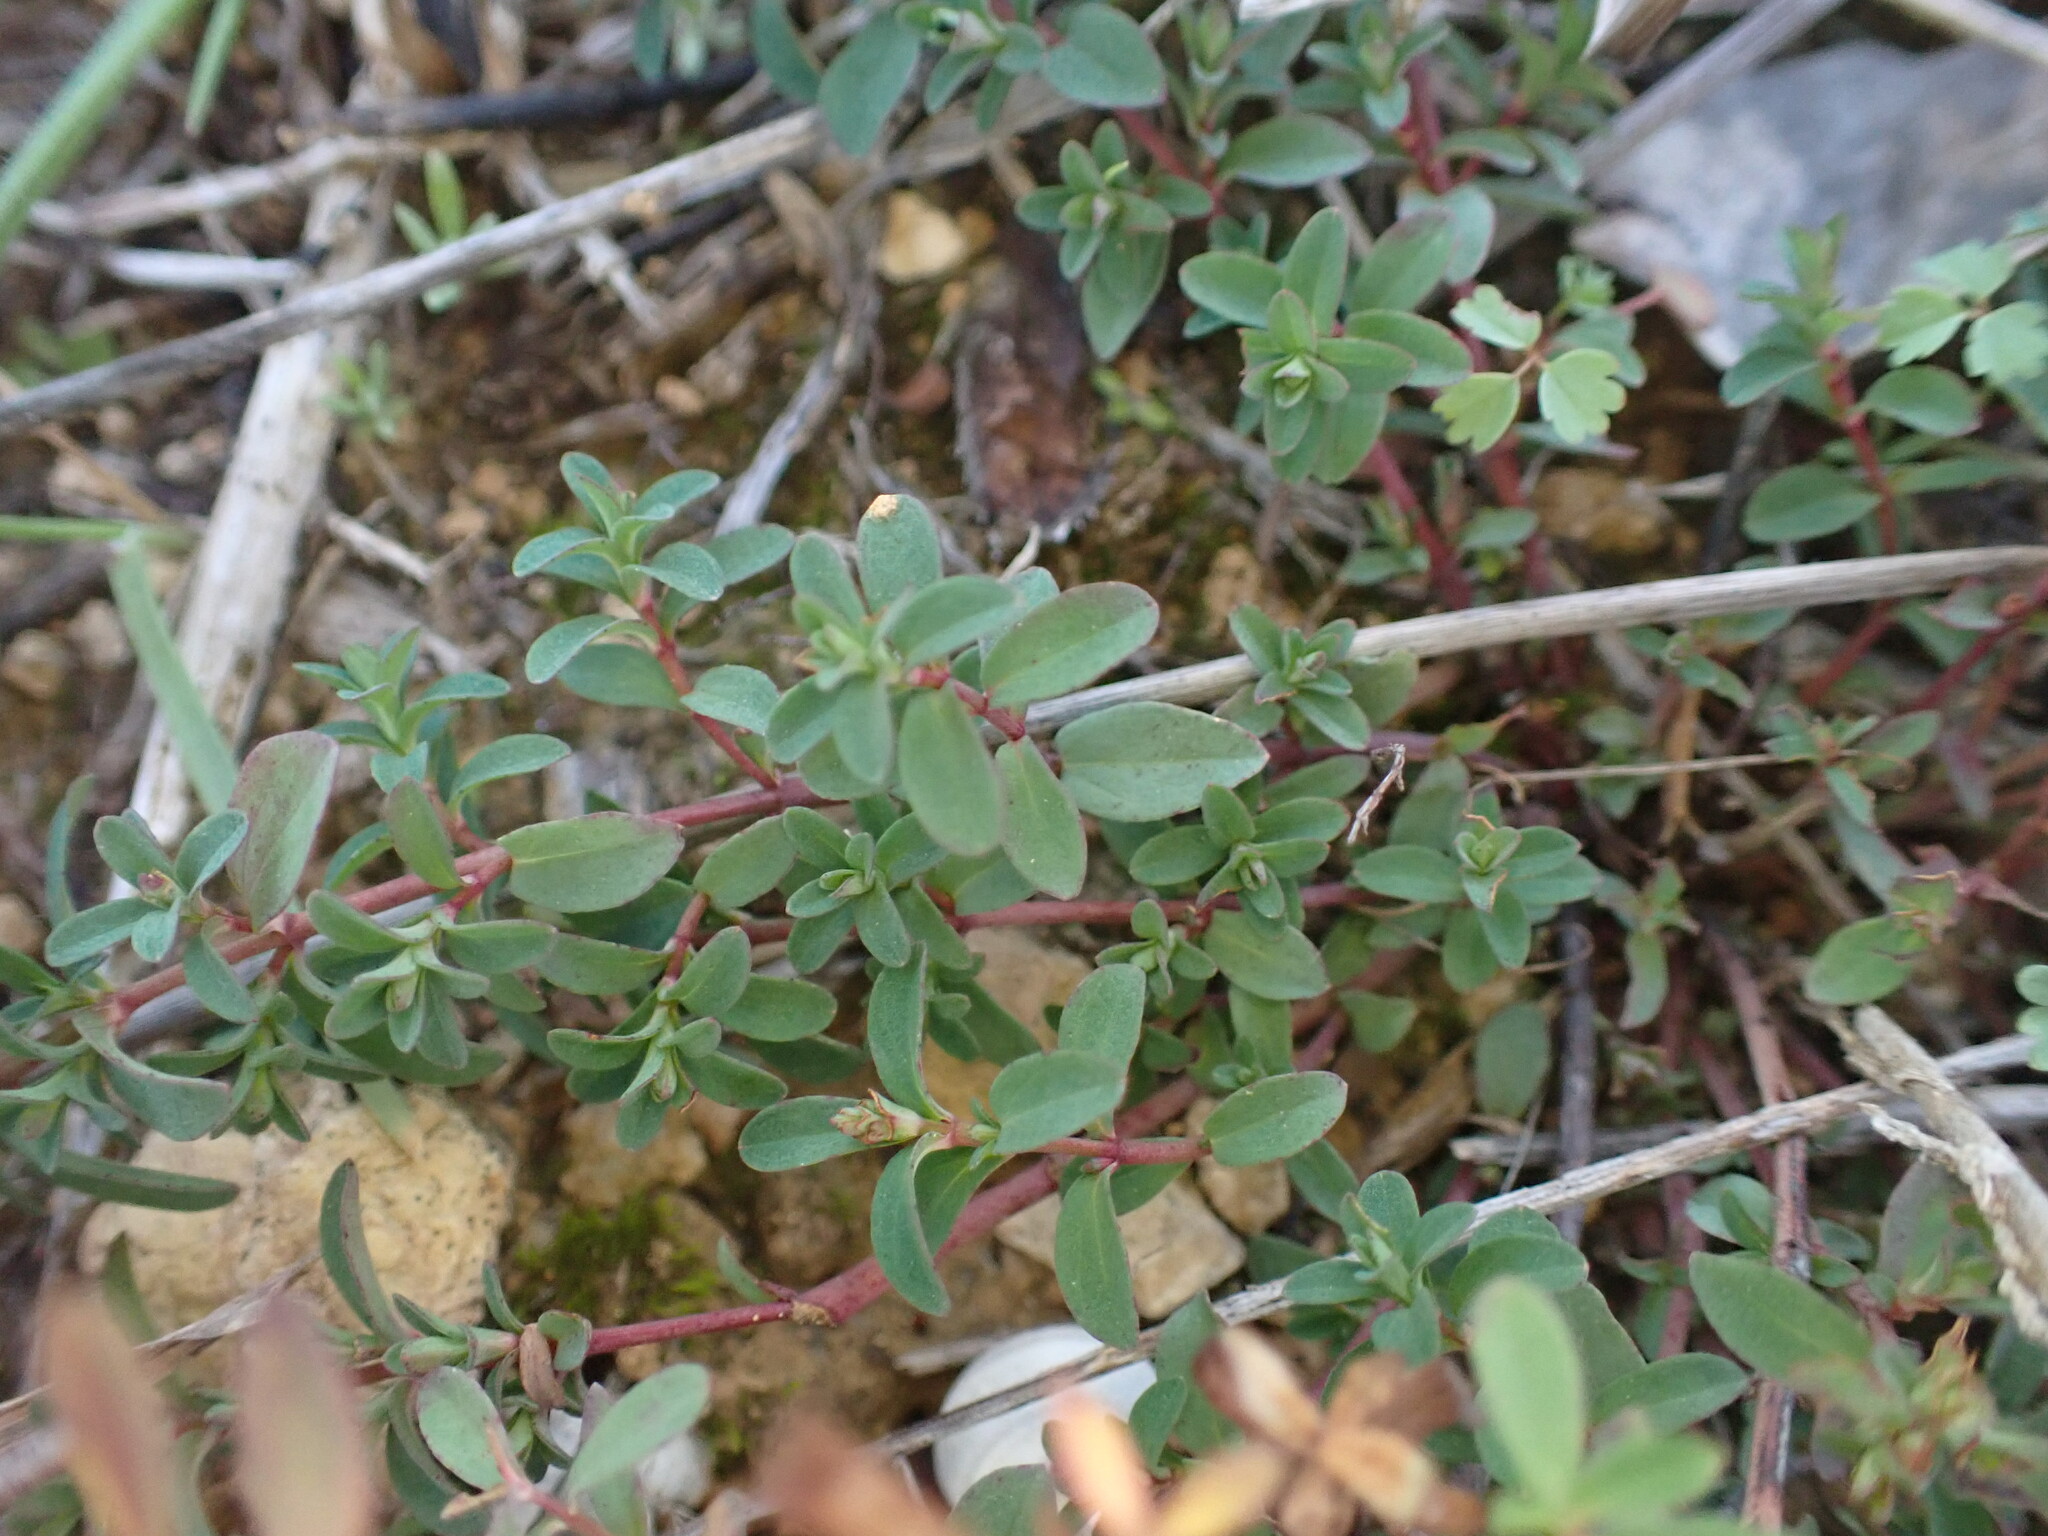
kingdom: Plantae
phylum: Tracheophyta
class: Magnoliopsida
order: Malpighiales
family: Hypericaceae
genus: Hypericum
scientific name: Hypericum perforatum
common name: Common st. johnswort
